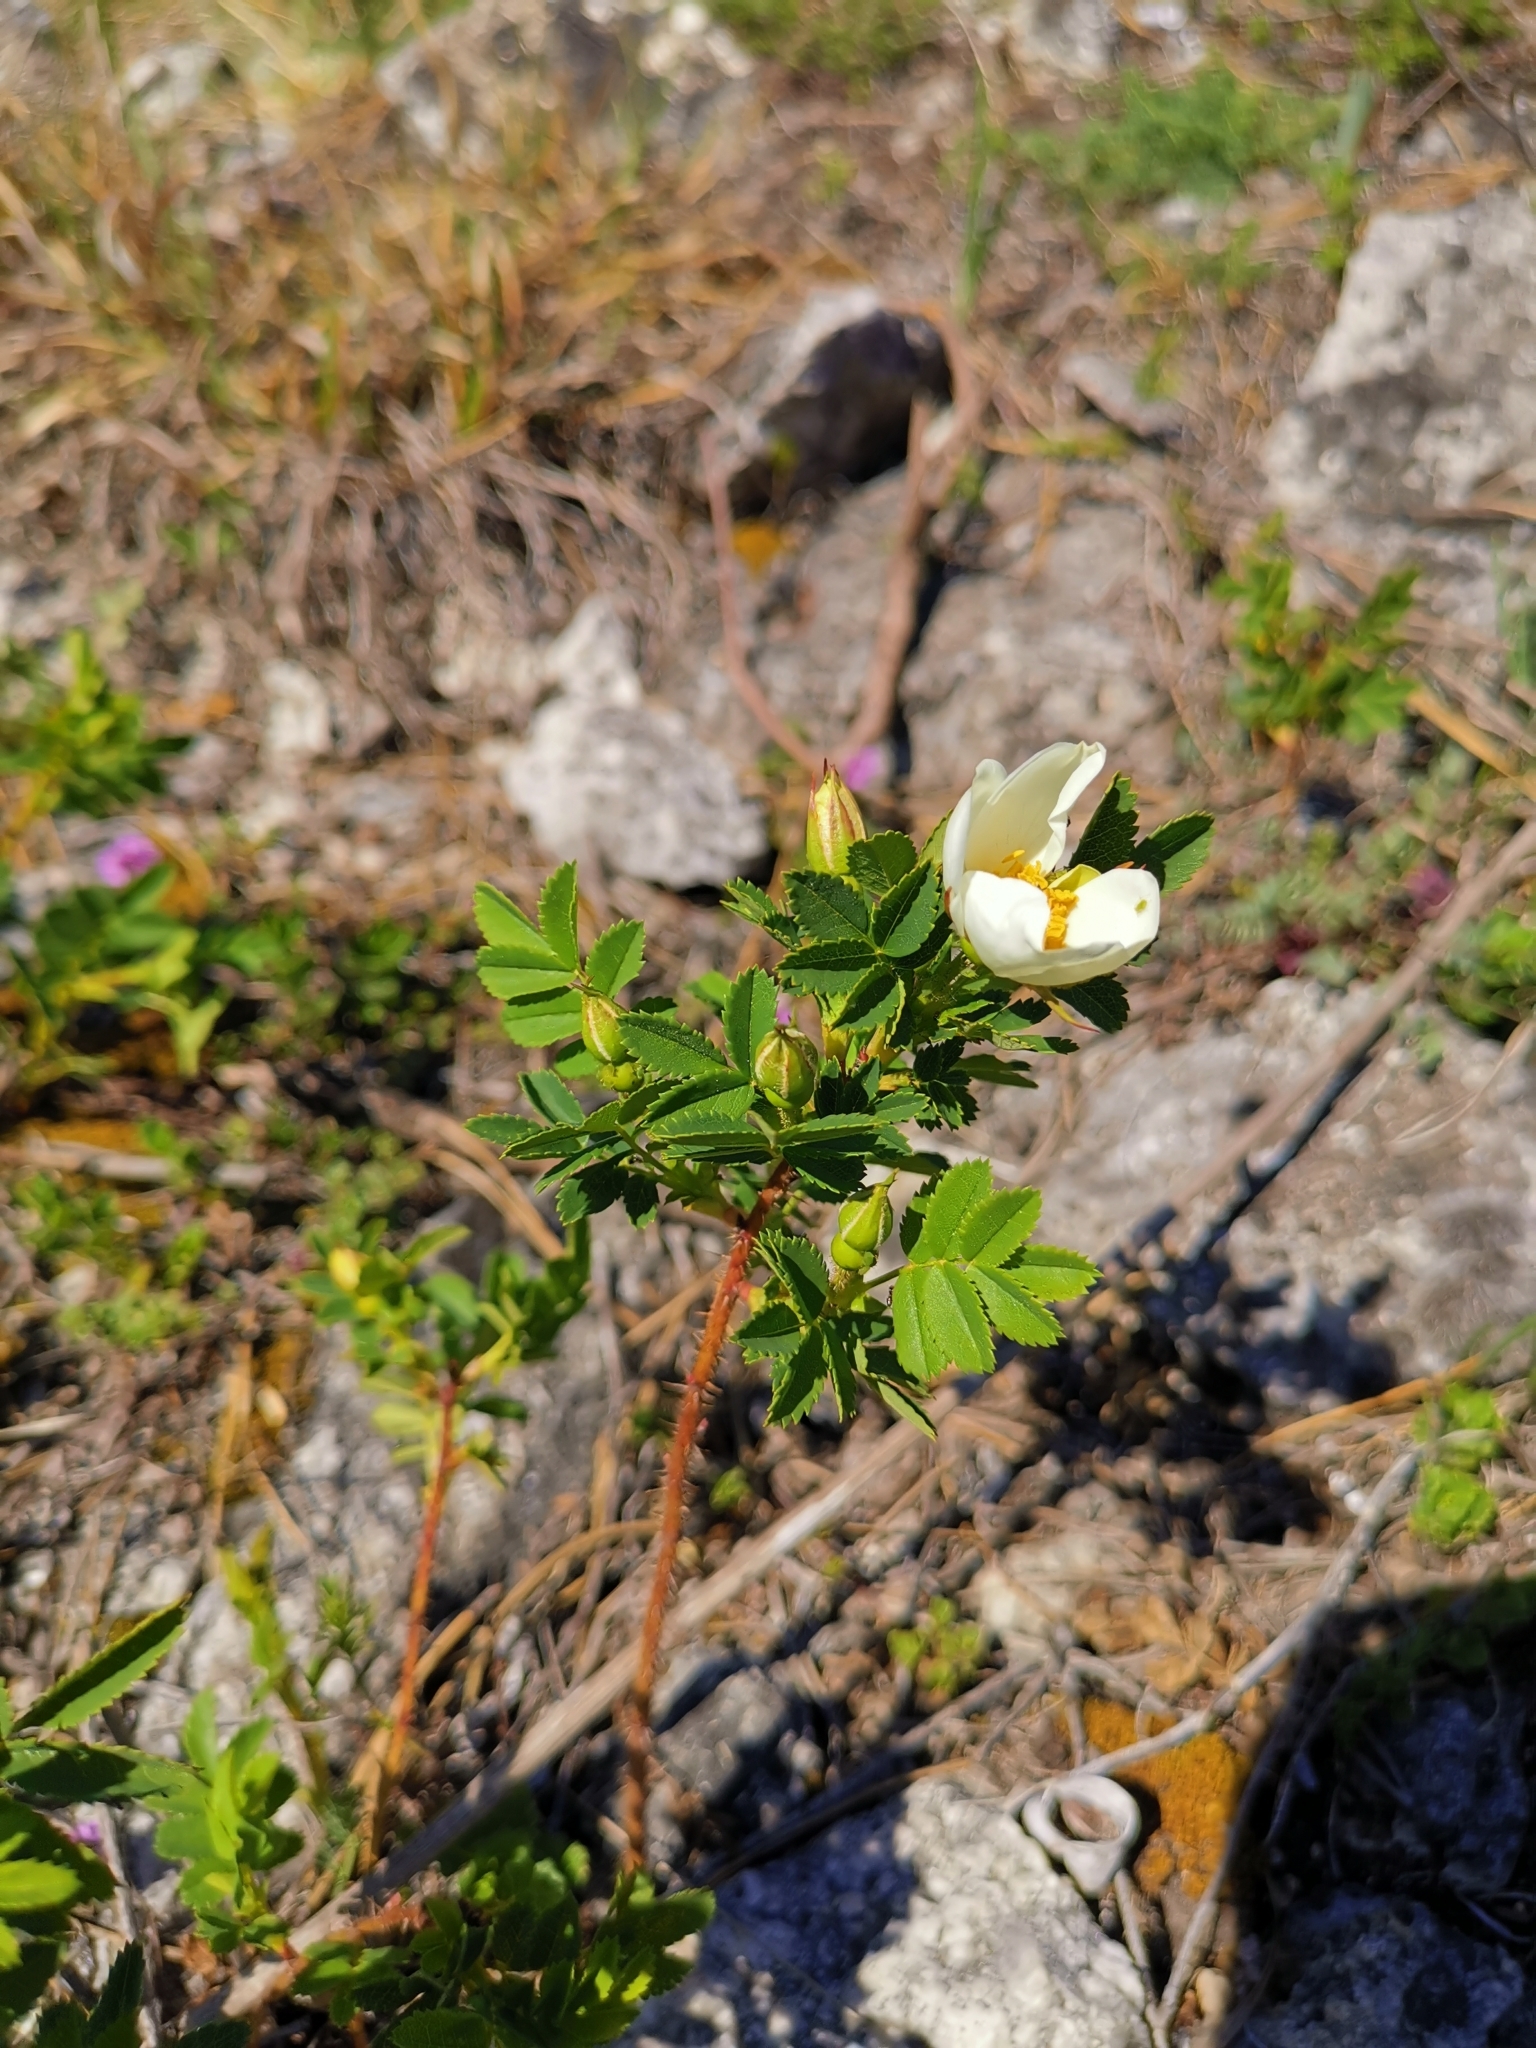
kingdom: Plantae
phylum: Tracheophyta
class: Magnoliopsida
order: Rosales
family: Rosaceae
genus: Rosa
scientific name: Rosa spinosissima
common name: Burnet rose
